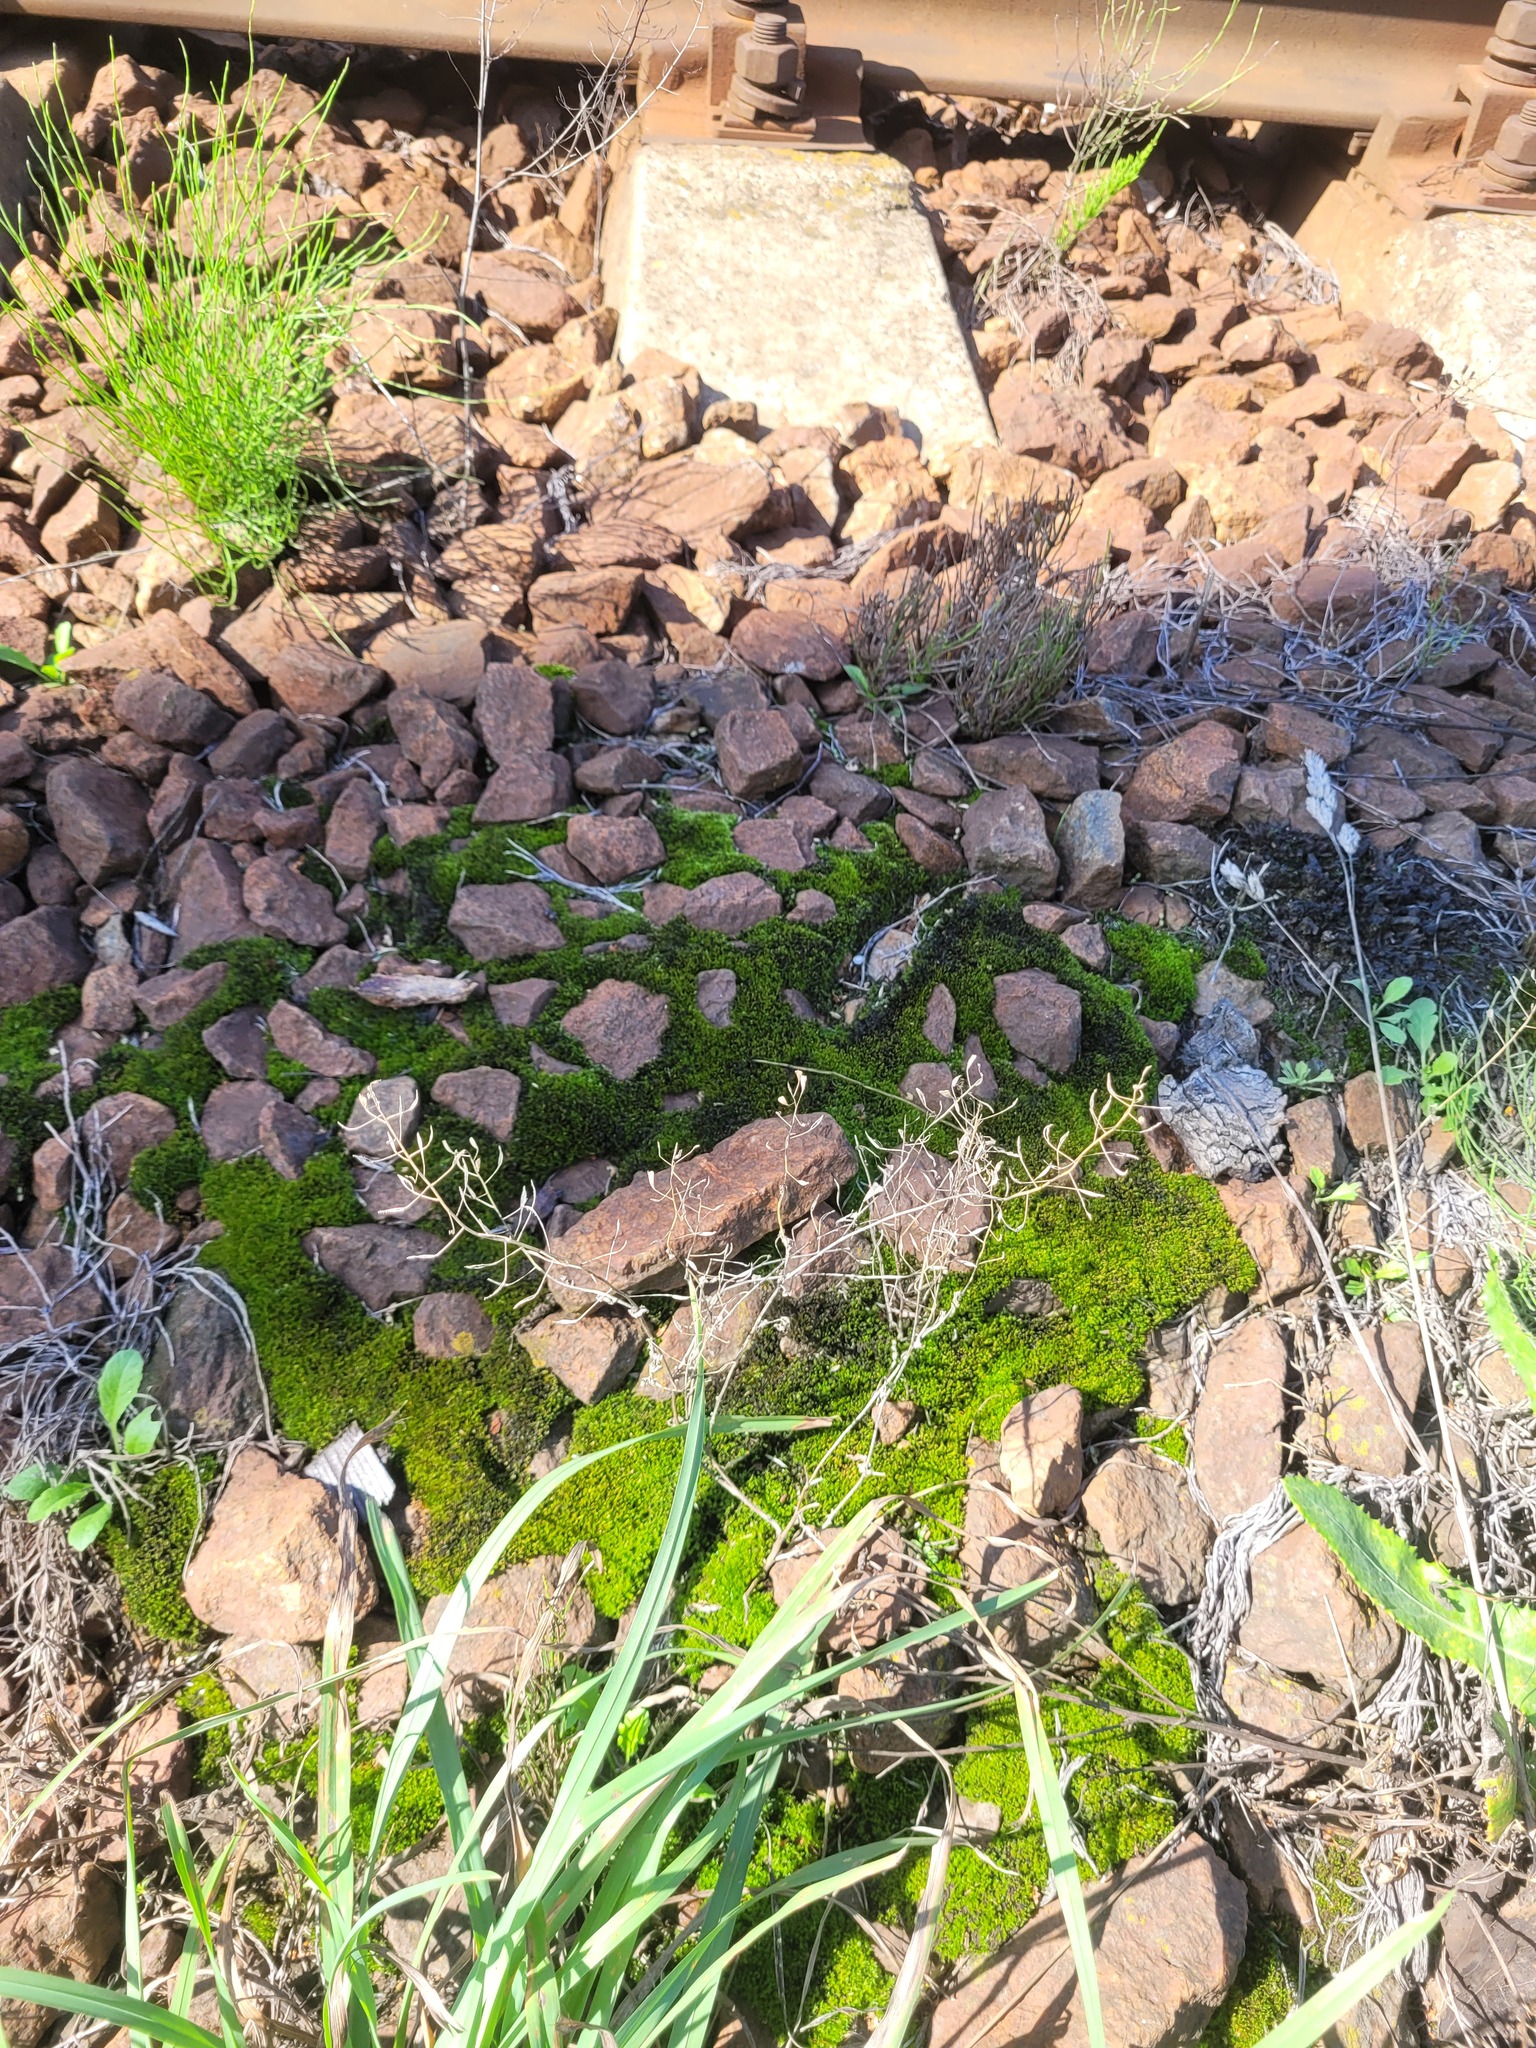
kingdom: Plantae
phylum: Tracheophyta
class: Magnoliopsida
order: Brassicales
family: Brassicaceae
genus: Capsella
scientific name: Capsella bursa-pastoris
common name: Shepherd's purse
